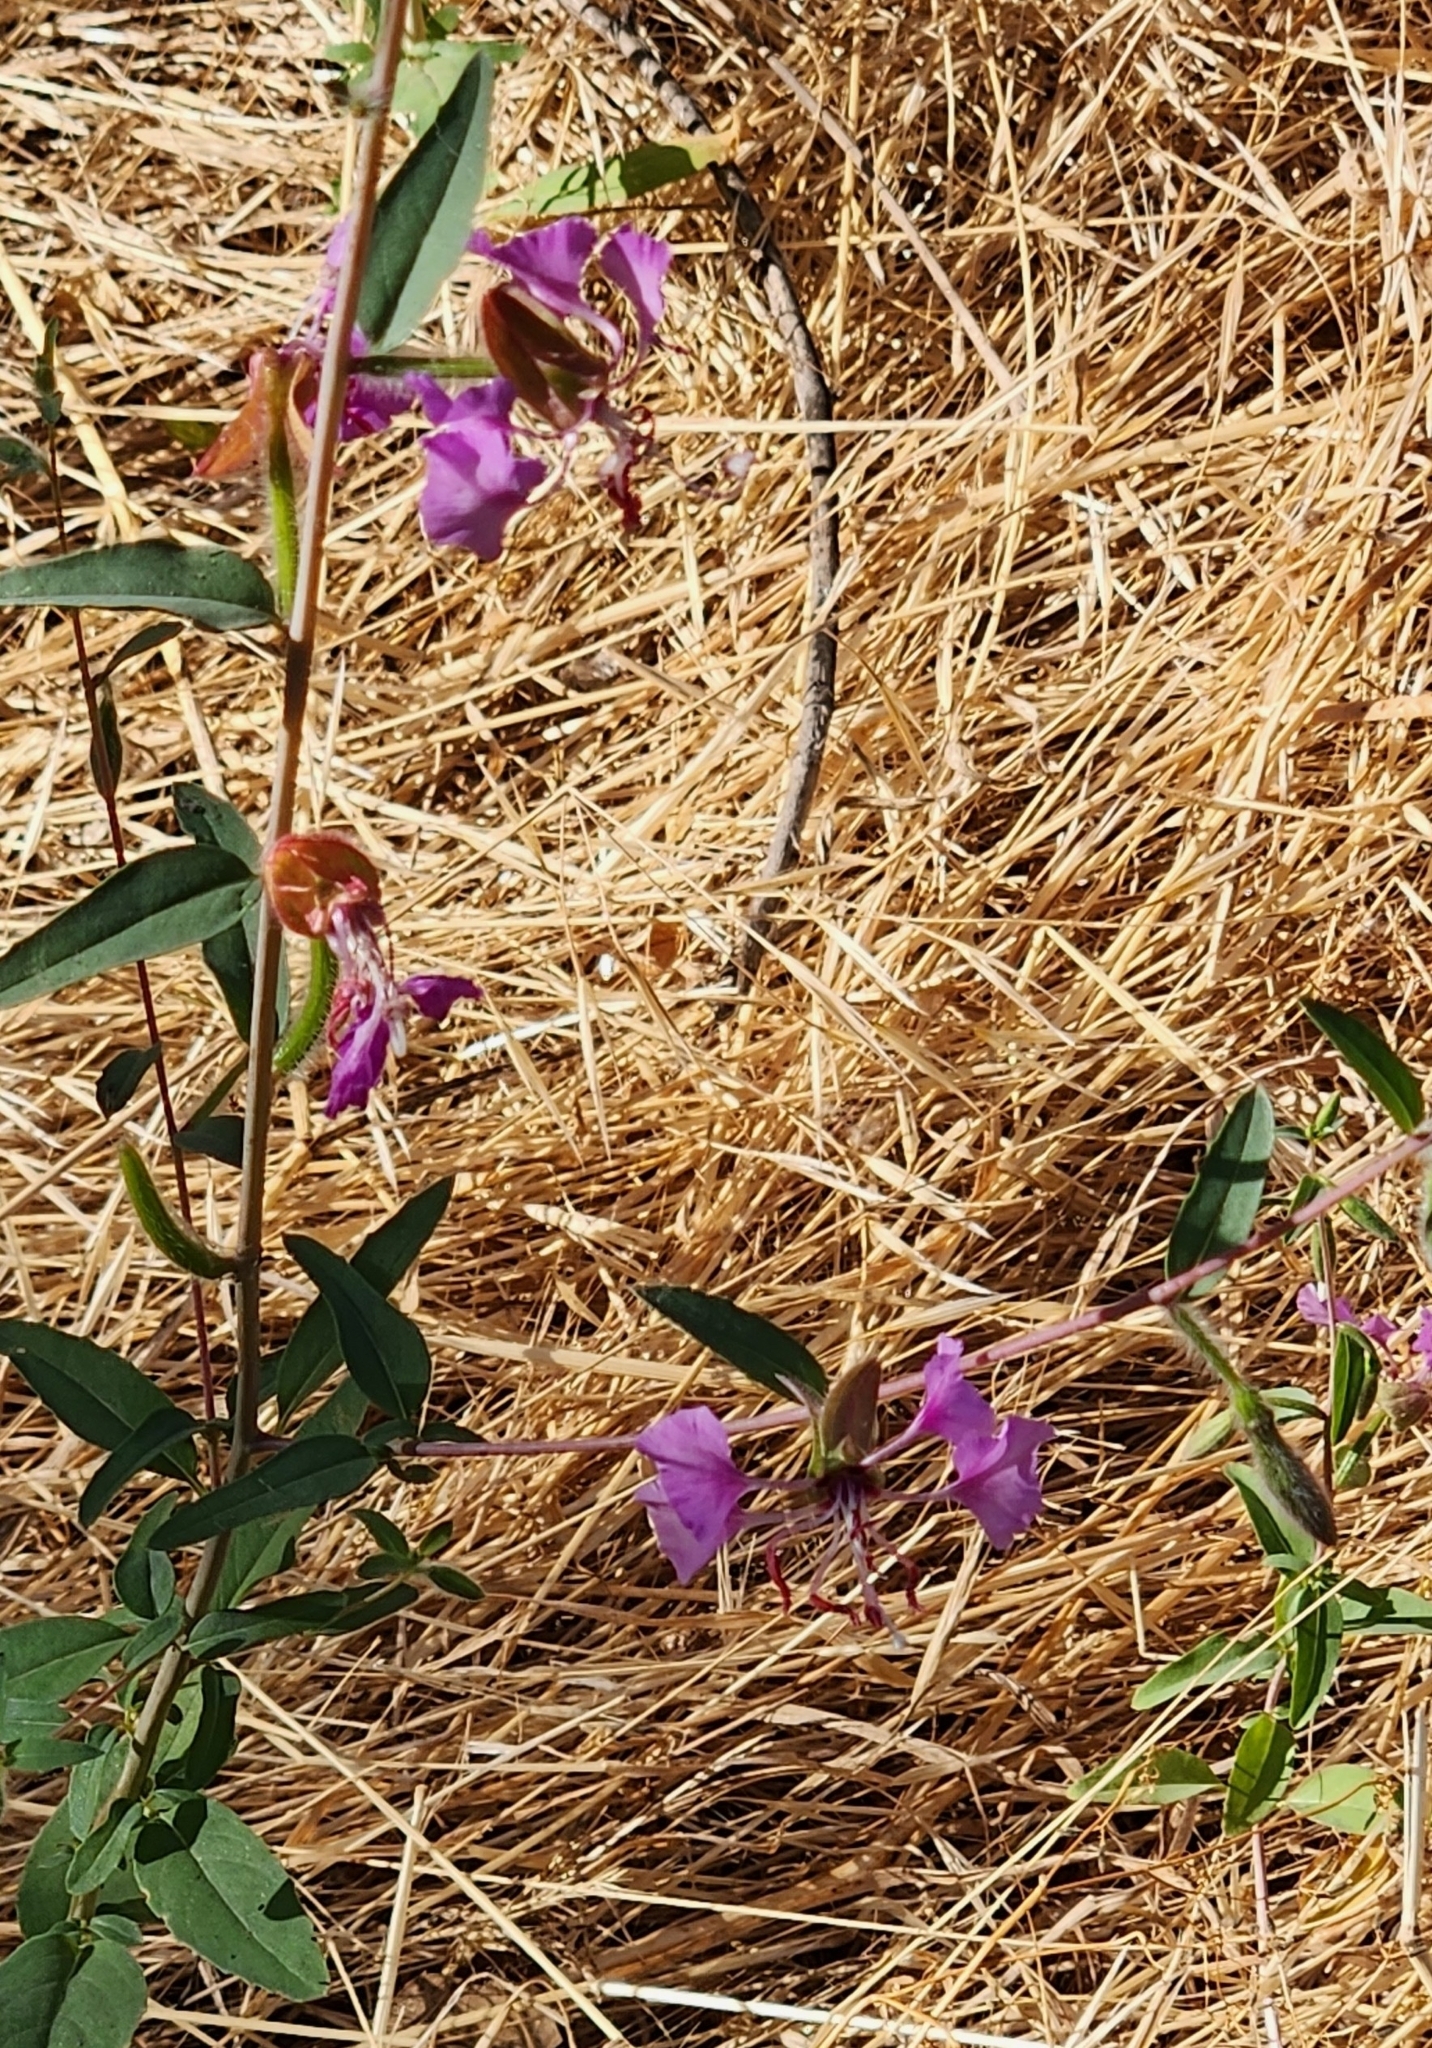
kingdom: Plantae
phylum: Tracheophyta
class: Magnoliopsida
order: Myrtales
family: Onagraceae
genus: Clarkia
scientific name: Clarkia unguiculata
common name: Clarkia
